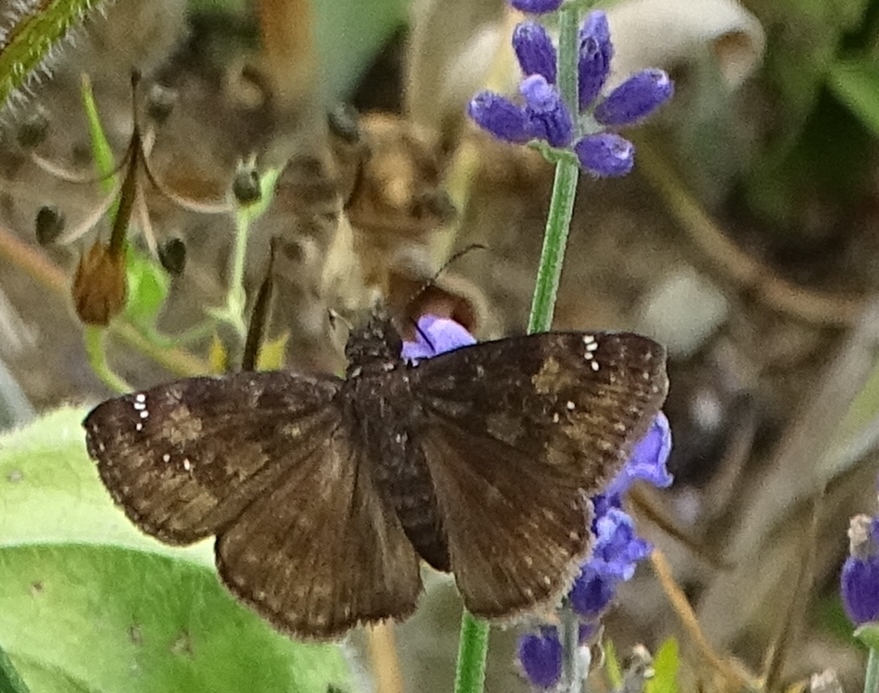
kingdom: Animalia
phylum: Arthropoda
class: Insecta
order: Lepidoptera
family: Hesperiidae
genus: Erynnis
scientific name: Erynnis baptisiae
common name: Wild indigo duskywing
